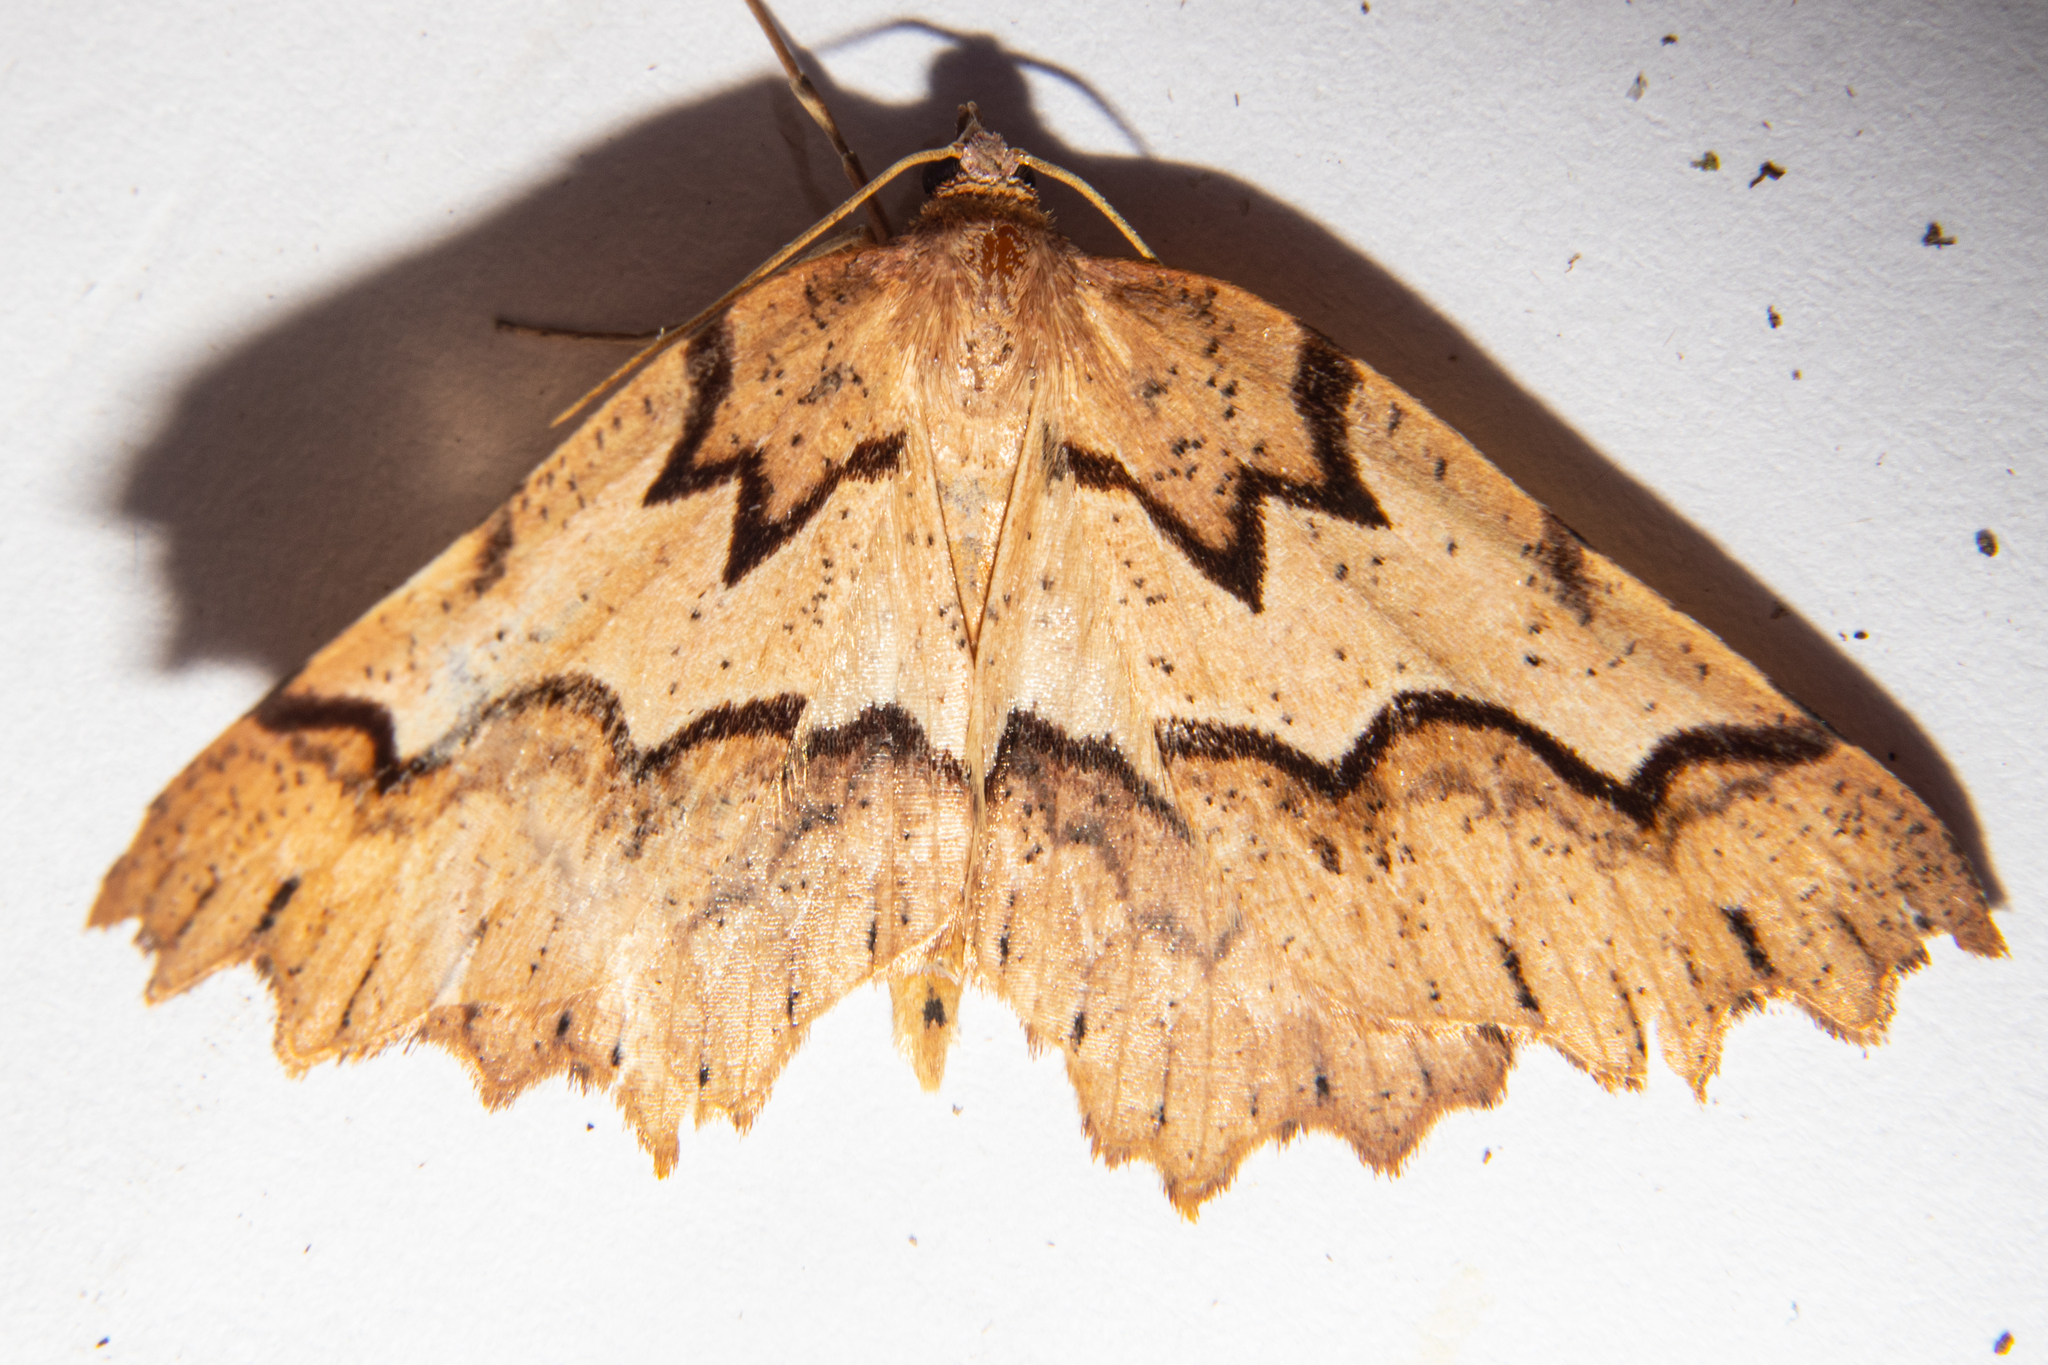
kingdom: Animalia
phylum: Arthropoda
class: Insecta
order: Lepidoptera
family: Geometridae
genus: Ischalis
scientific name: Ischalis fortinata
